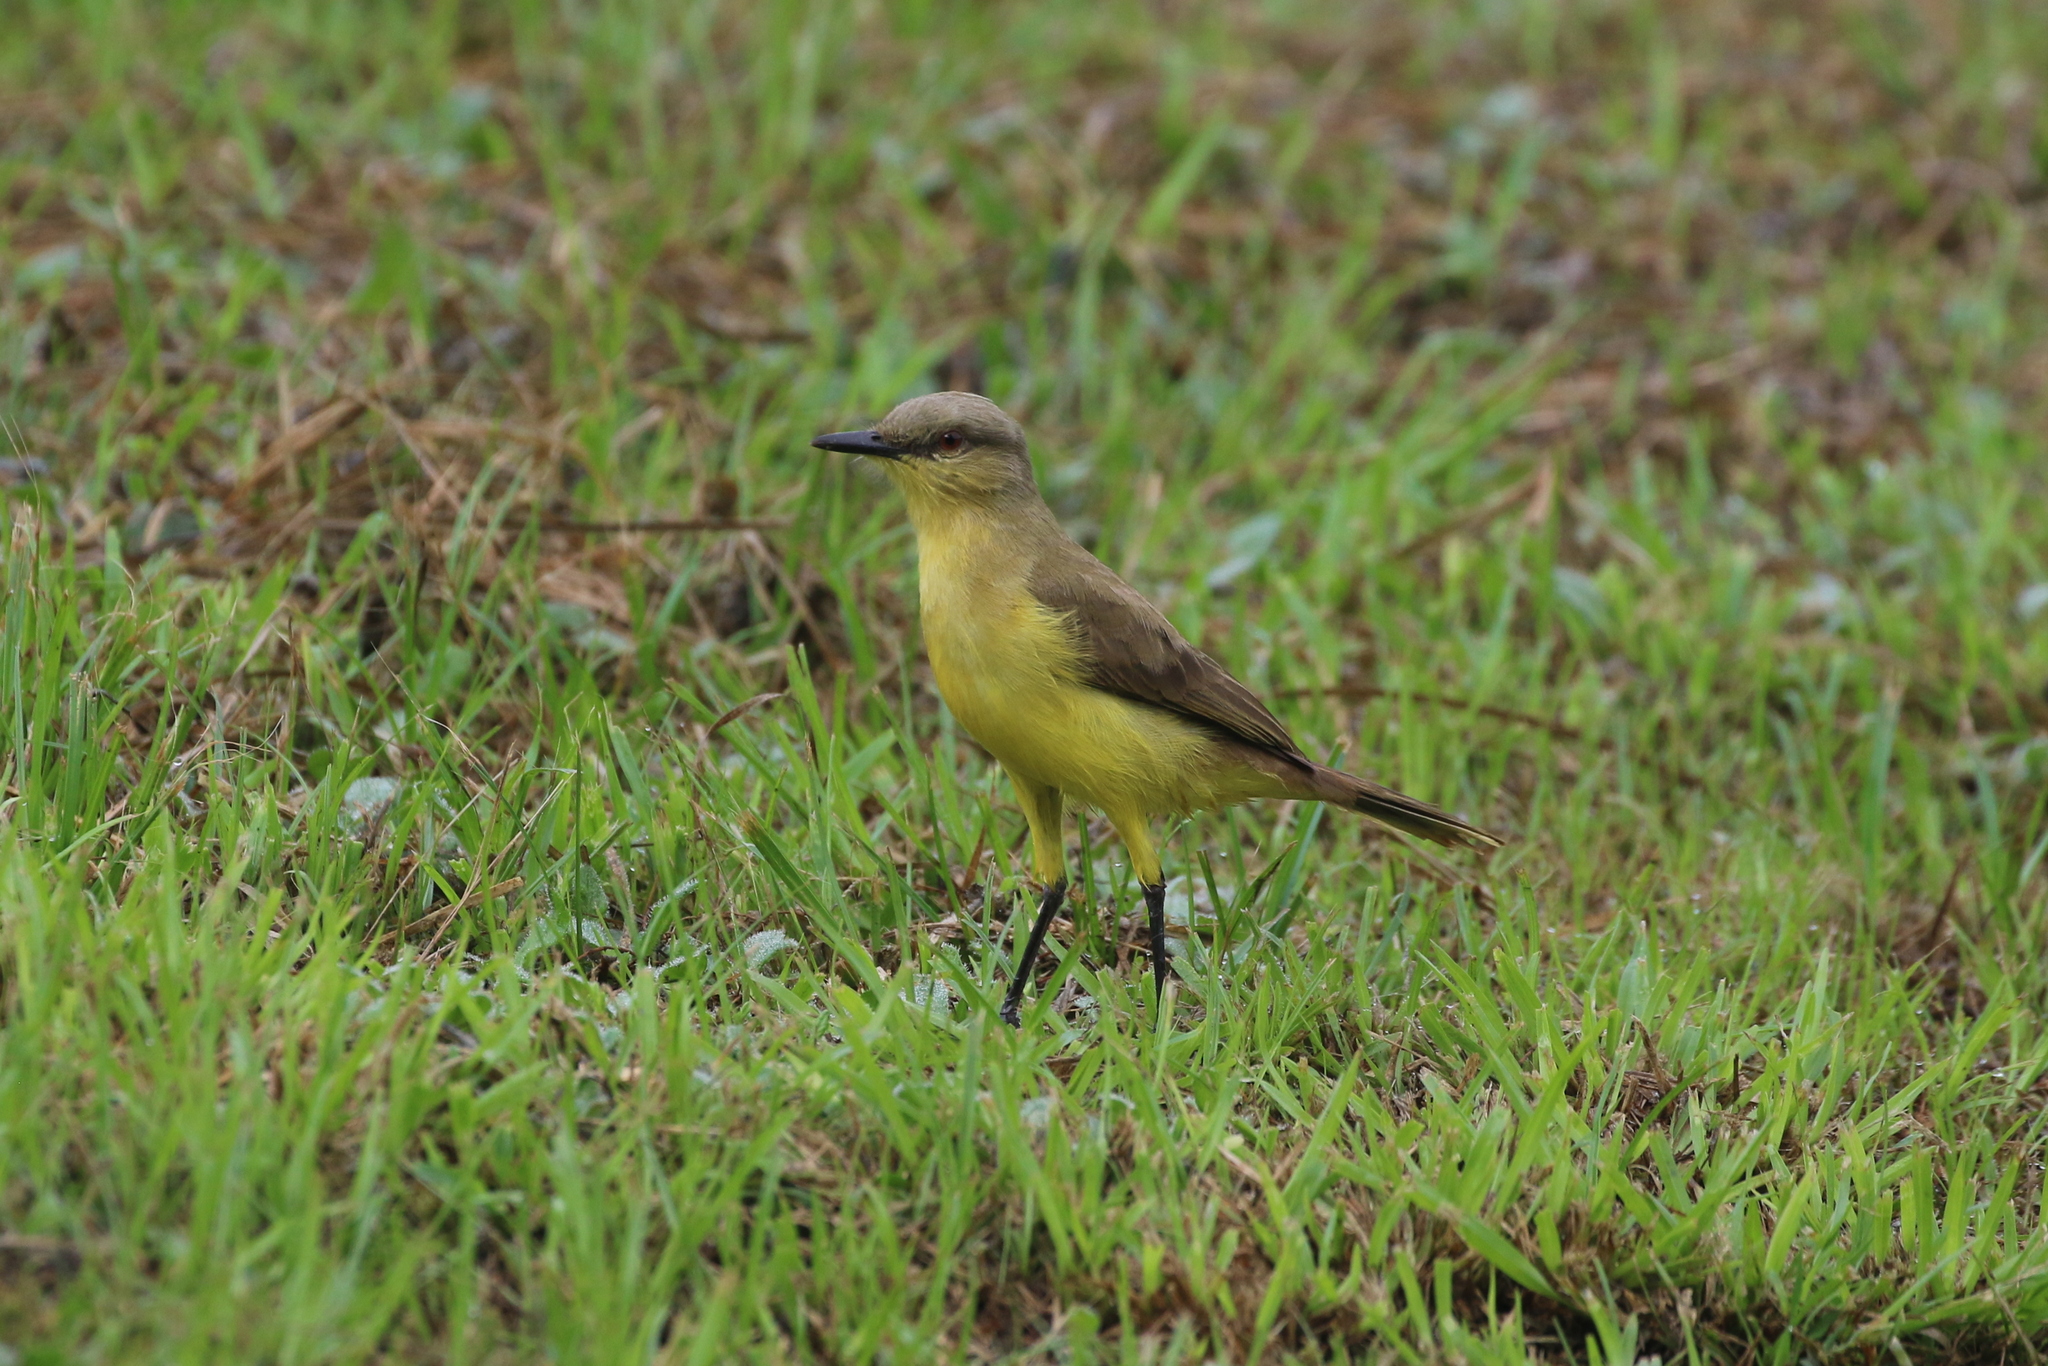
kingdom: Animalia
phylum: Chordata
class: Aves
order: Passeriformes
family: Tyrannidae
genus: Machetornis
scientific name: Machetornis rixosa
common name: Cattle tyrant
